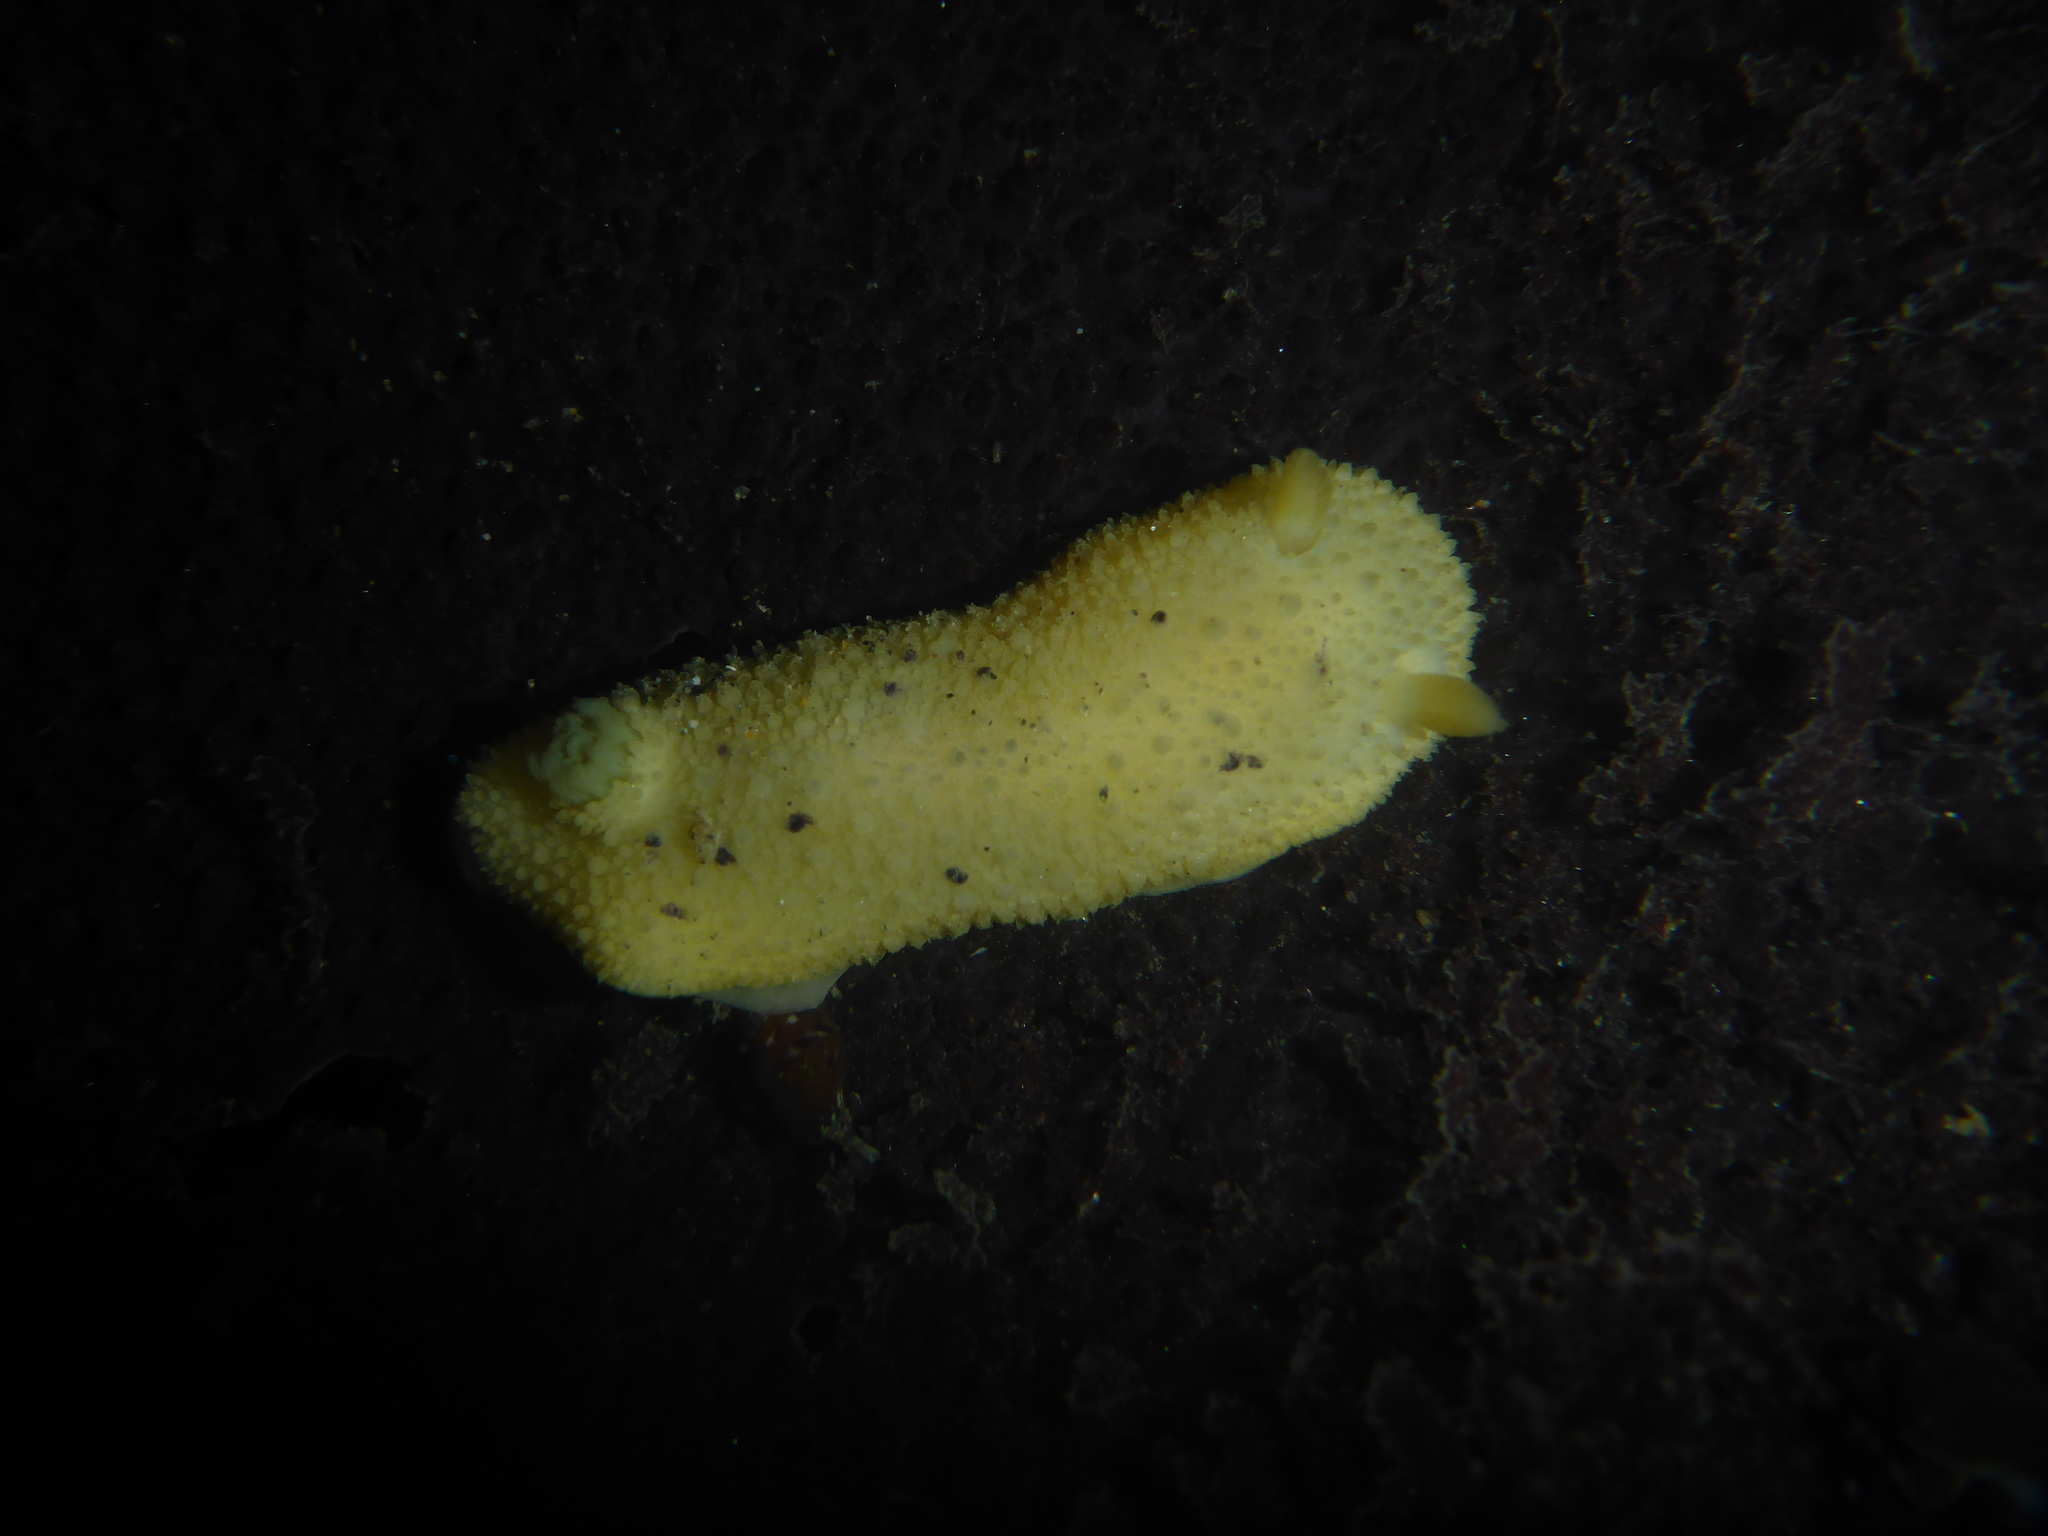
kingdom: Animalia
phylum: Mollusca
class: Gastropoda
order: Nudibranchia
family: Dorididae
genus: Doris
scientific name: Doris montereyensis
